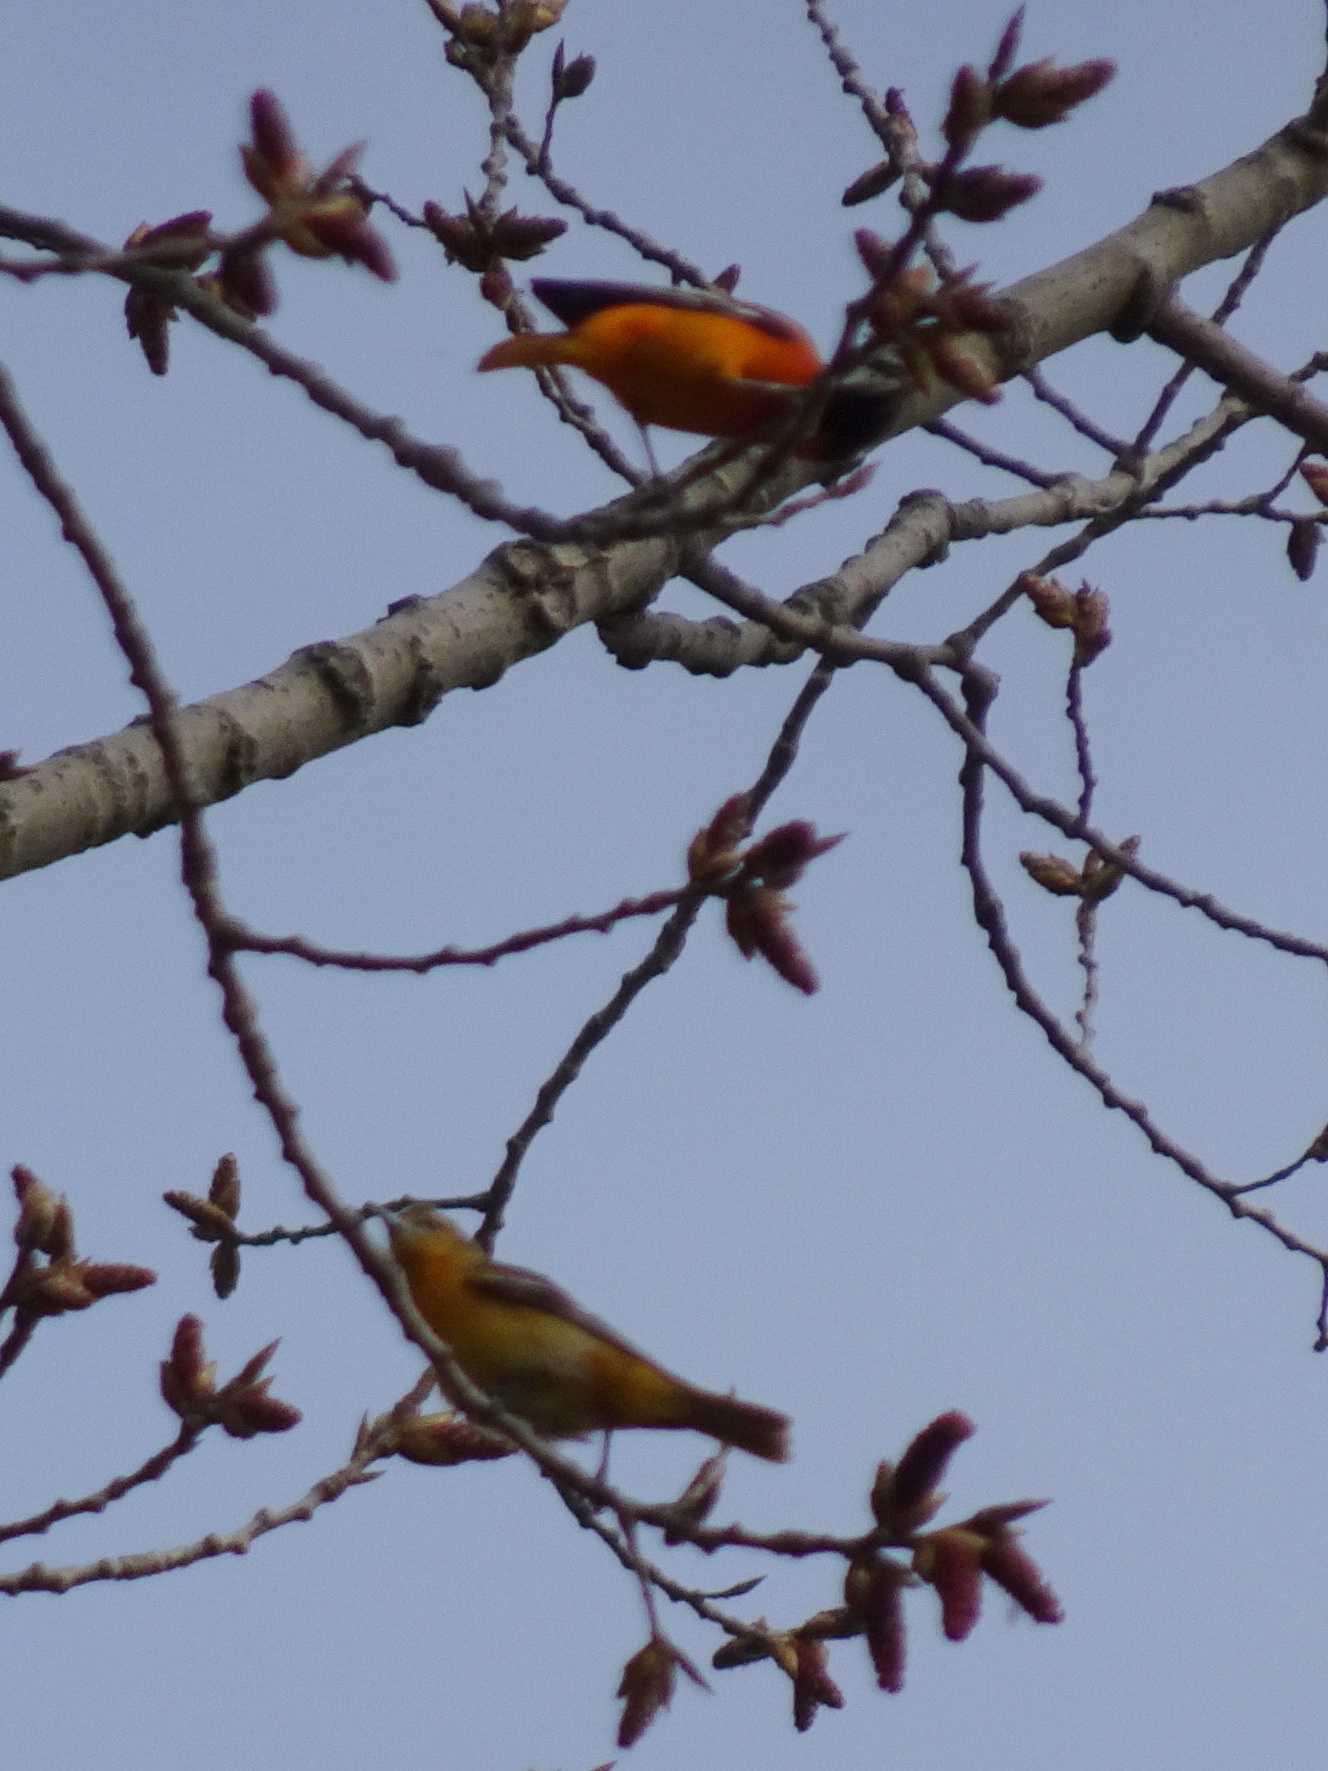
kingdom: Animalia
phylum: Chordata
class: Aves
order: Passeriformes
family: Icteridae
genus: Icterus
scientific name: Icterus galbula
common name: Baltimore oriole
